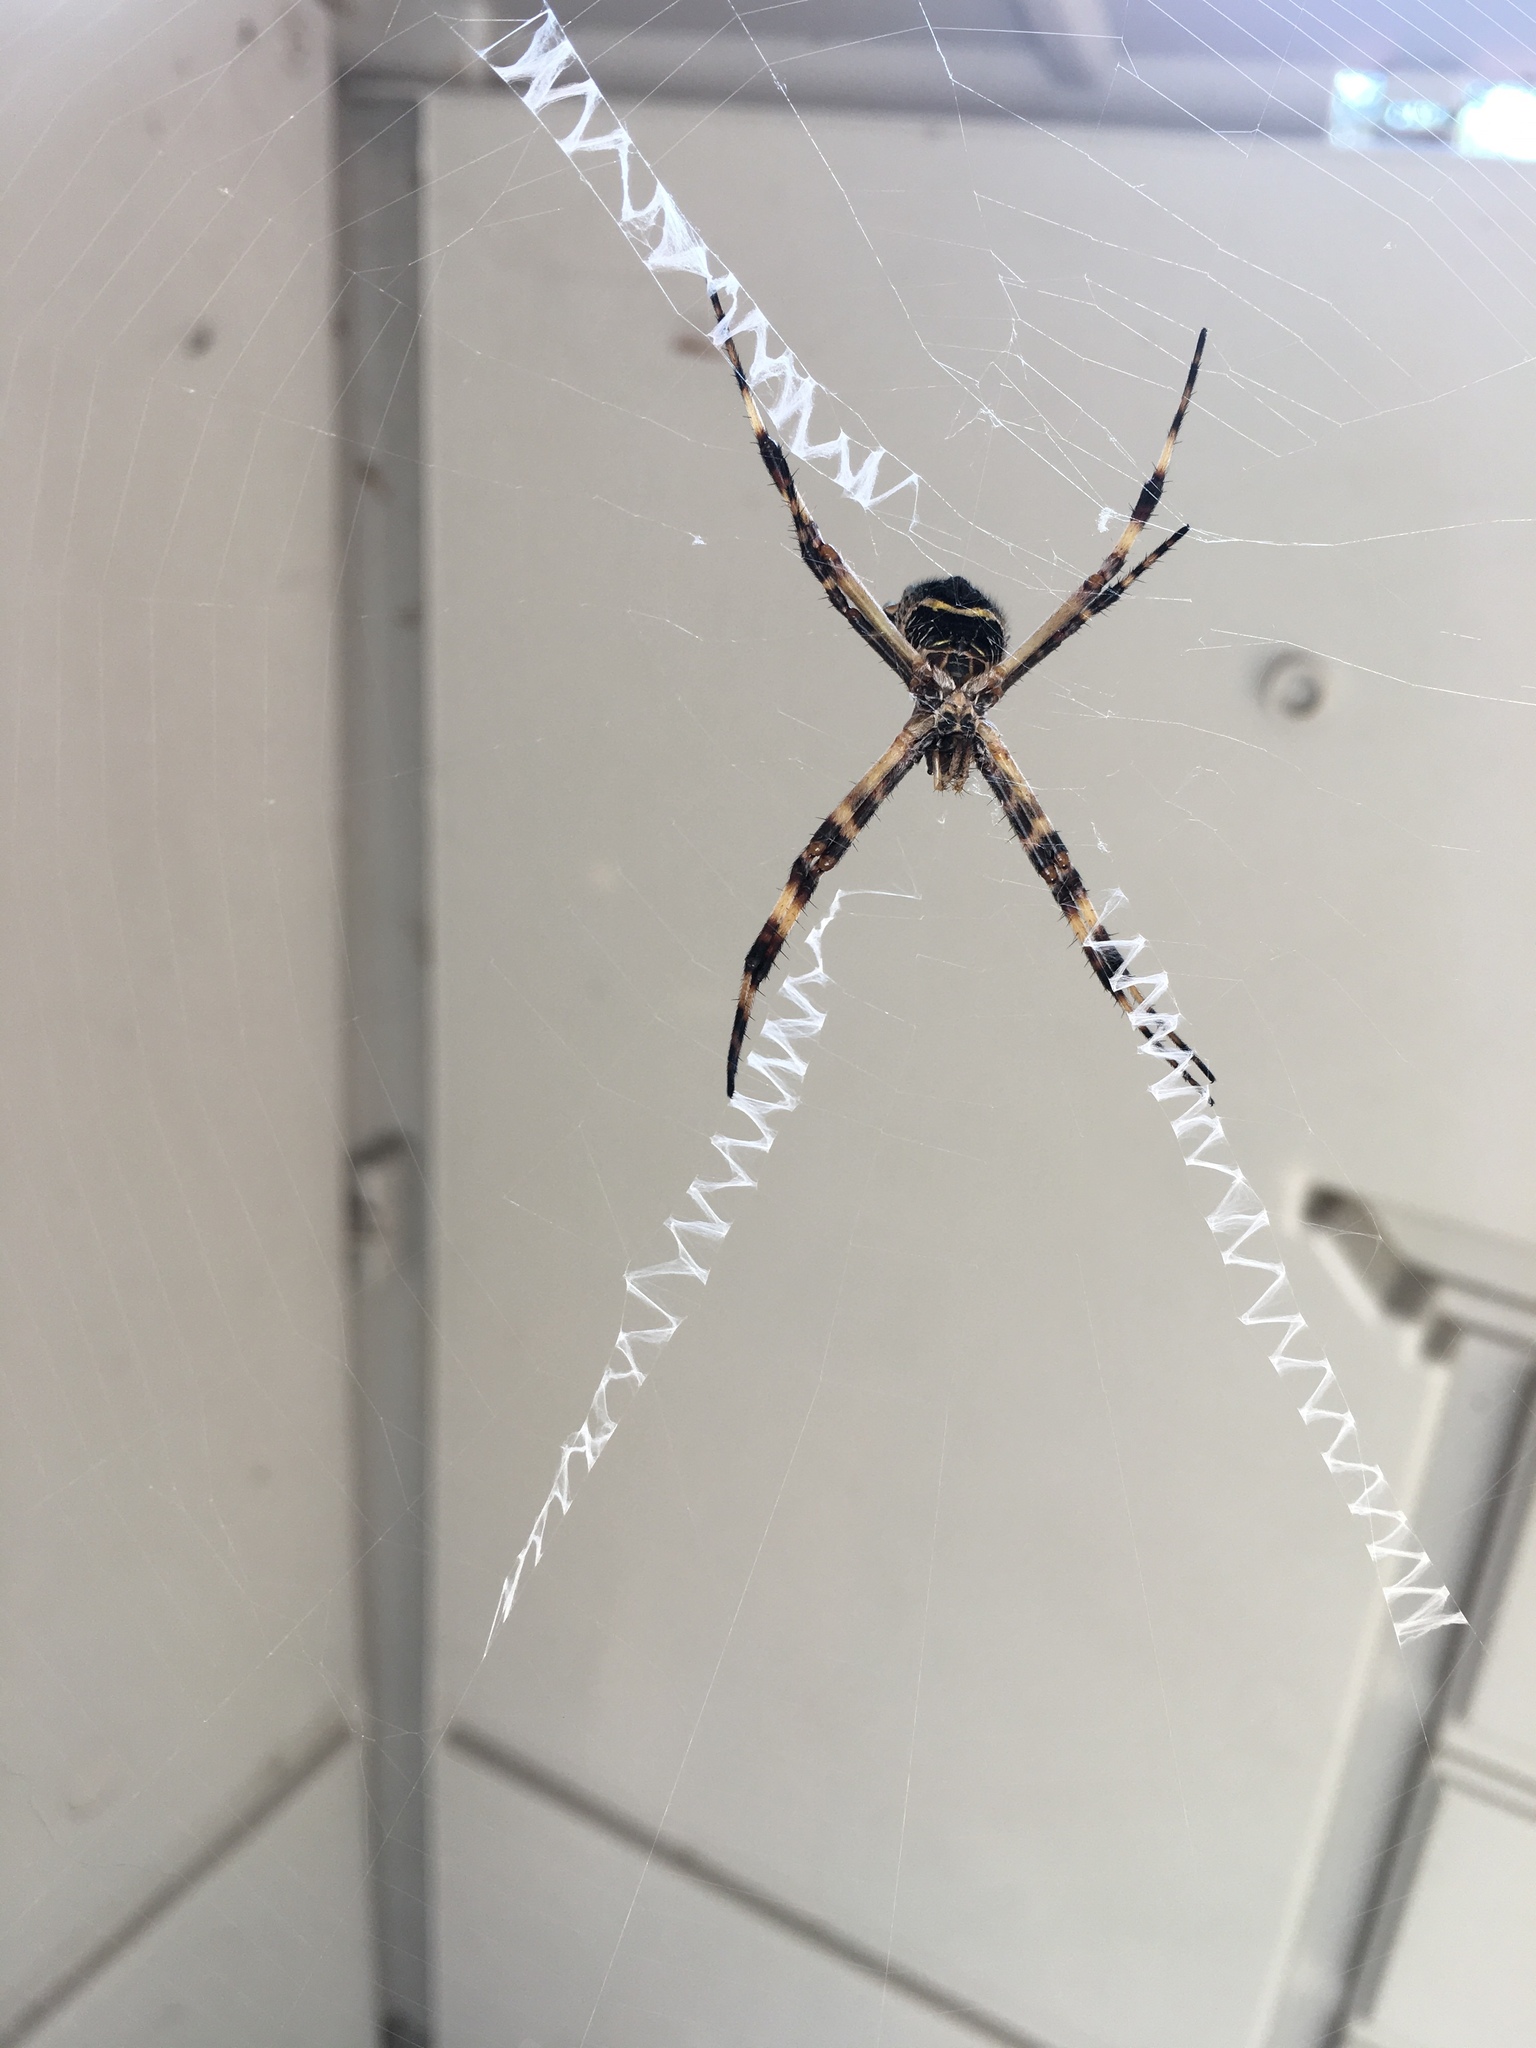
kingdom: Animalia
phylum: Arthropoda
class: Arachnida
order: Araneae
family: Araneidae
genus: Argiope
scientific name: Argiope argentata
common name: Orb weavers
